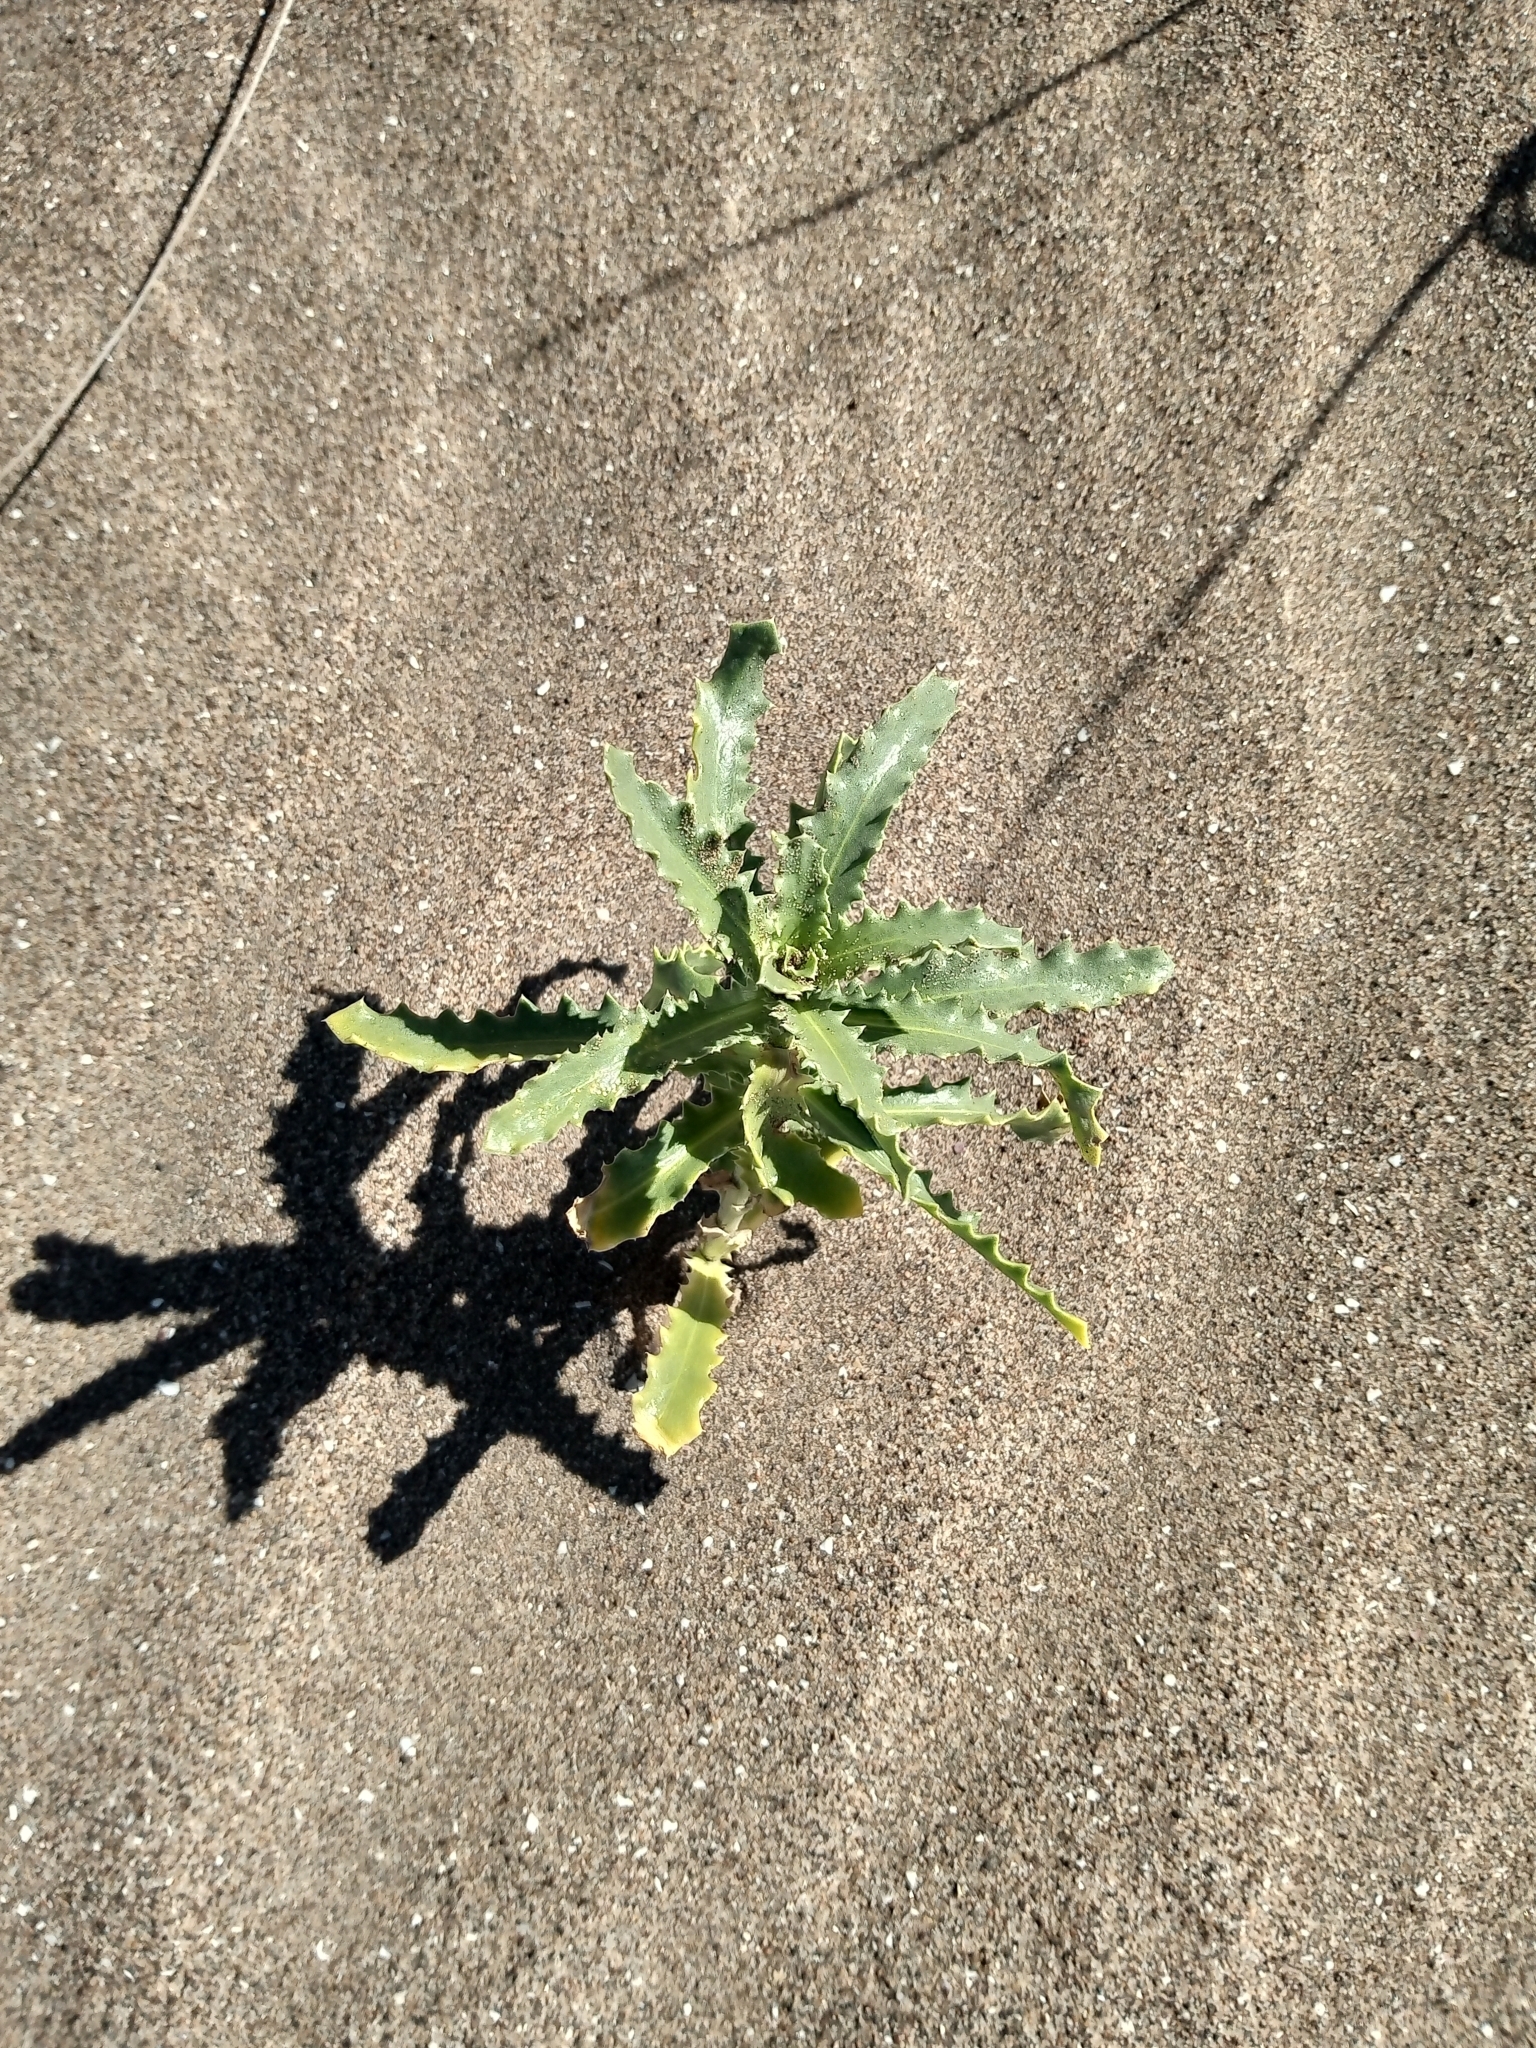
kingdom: Plantae
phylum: Tracheophyta
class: Magnoliopsida
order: Asterales
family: Calyceraceae
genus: Calycera
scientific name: Calycera crassifolia
